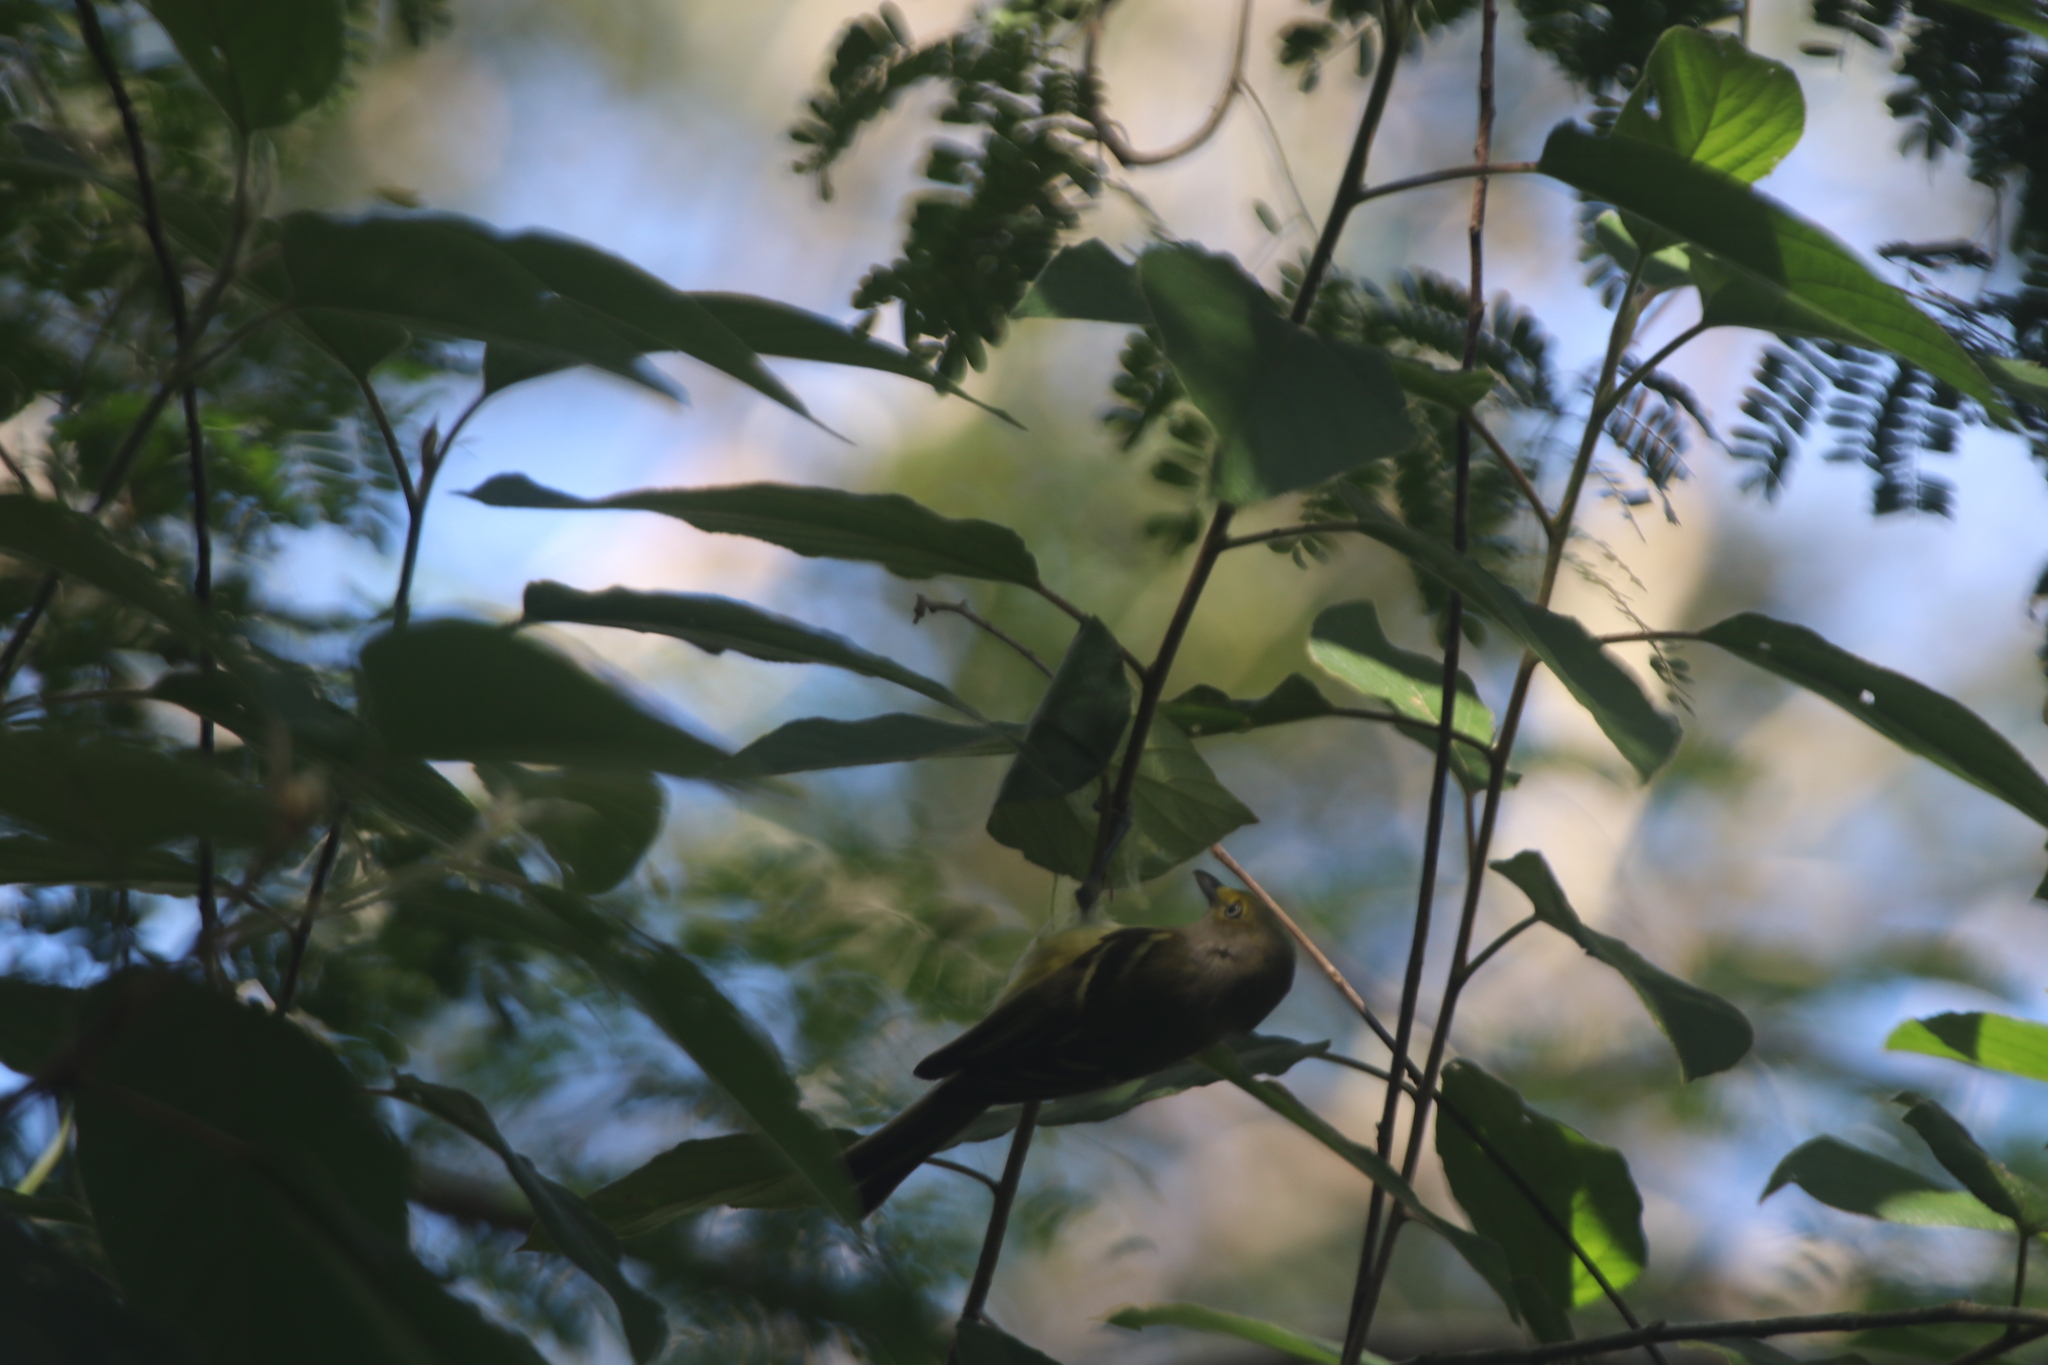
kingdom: Animalia
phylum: Chordata
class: Aves
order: Passeriformes
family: Vireonidae
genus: Vireo
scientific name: Vireo griseus
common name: White-eyed vireo
